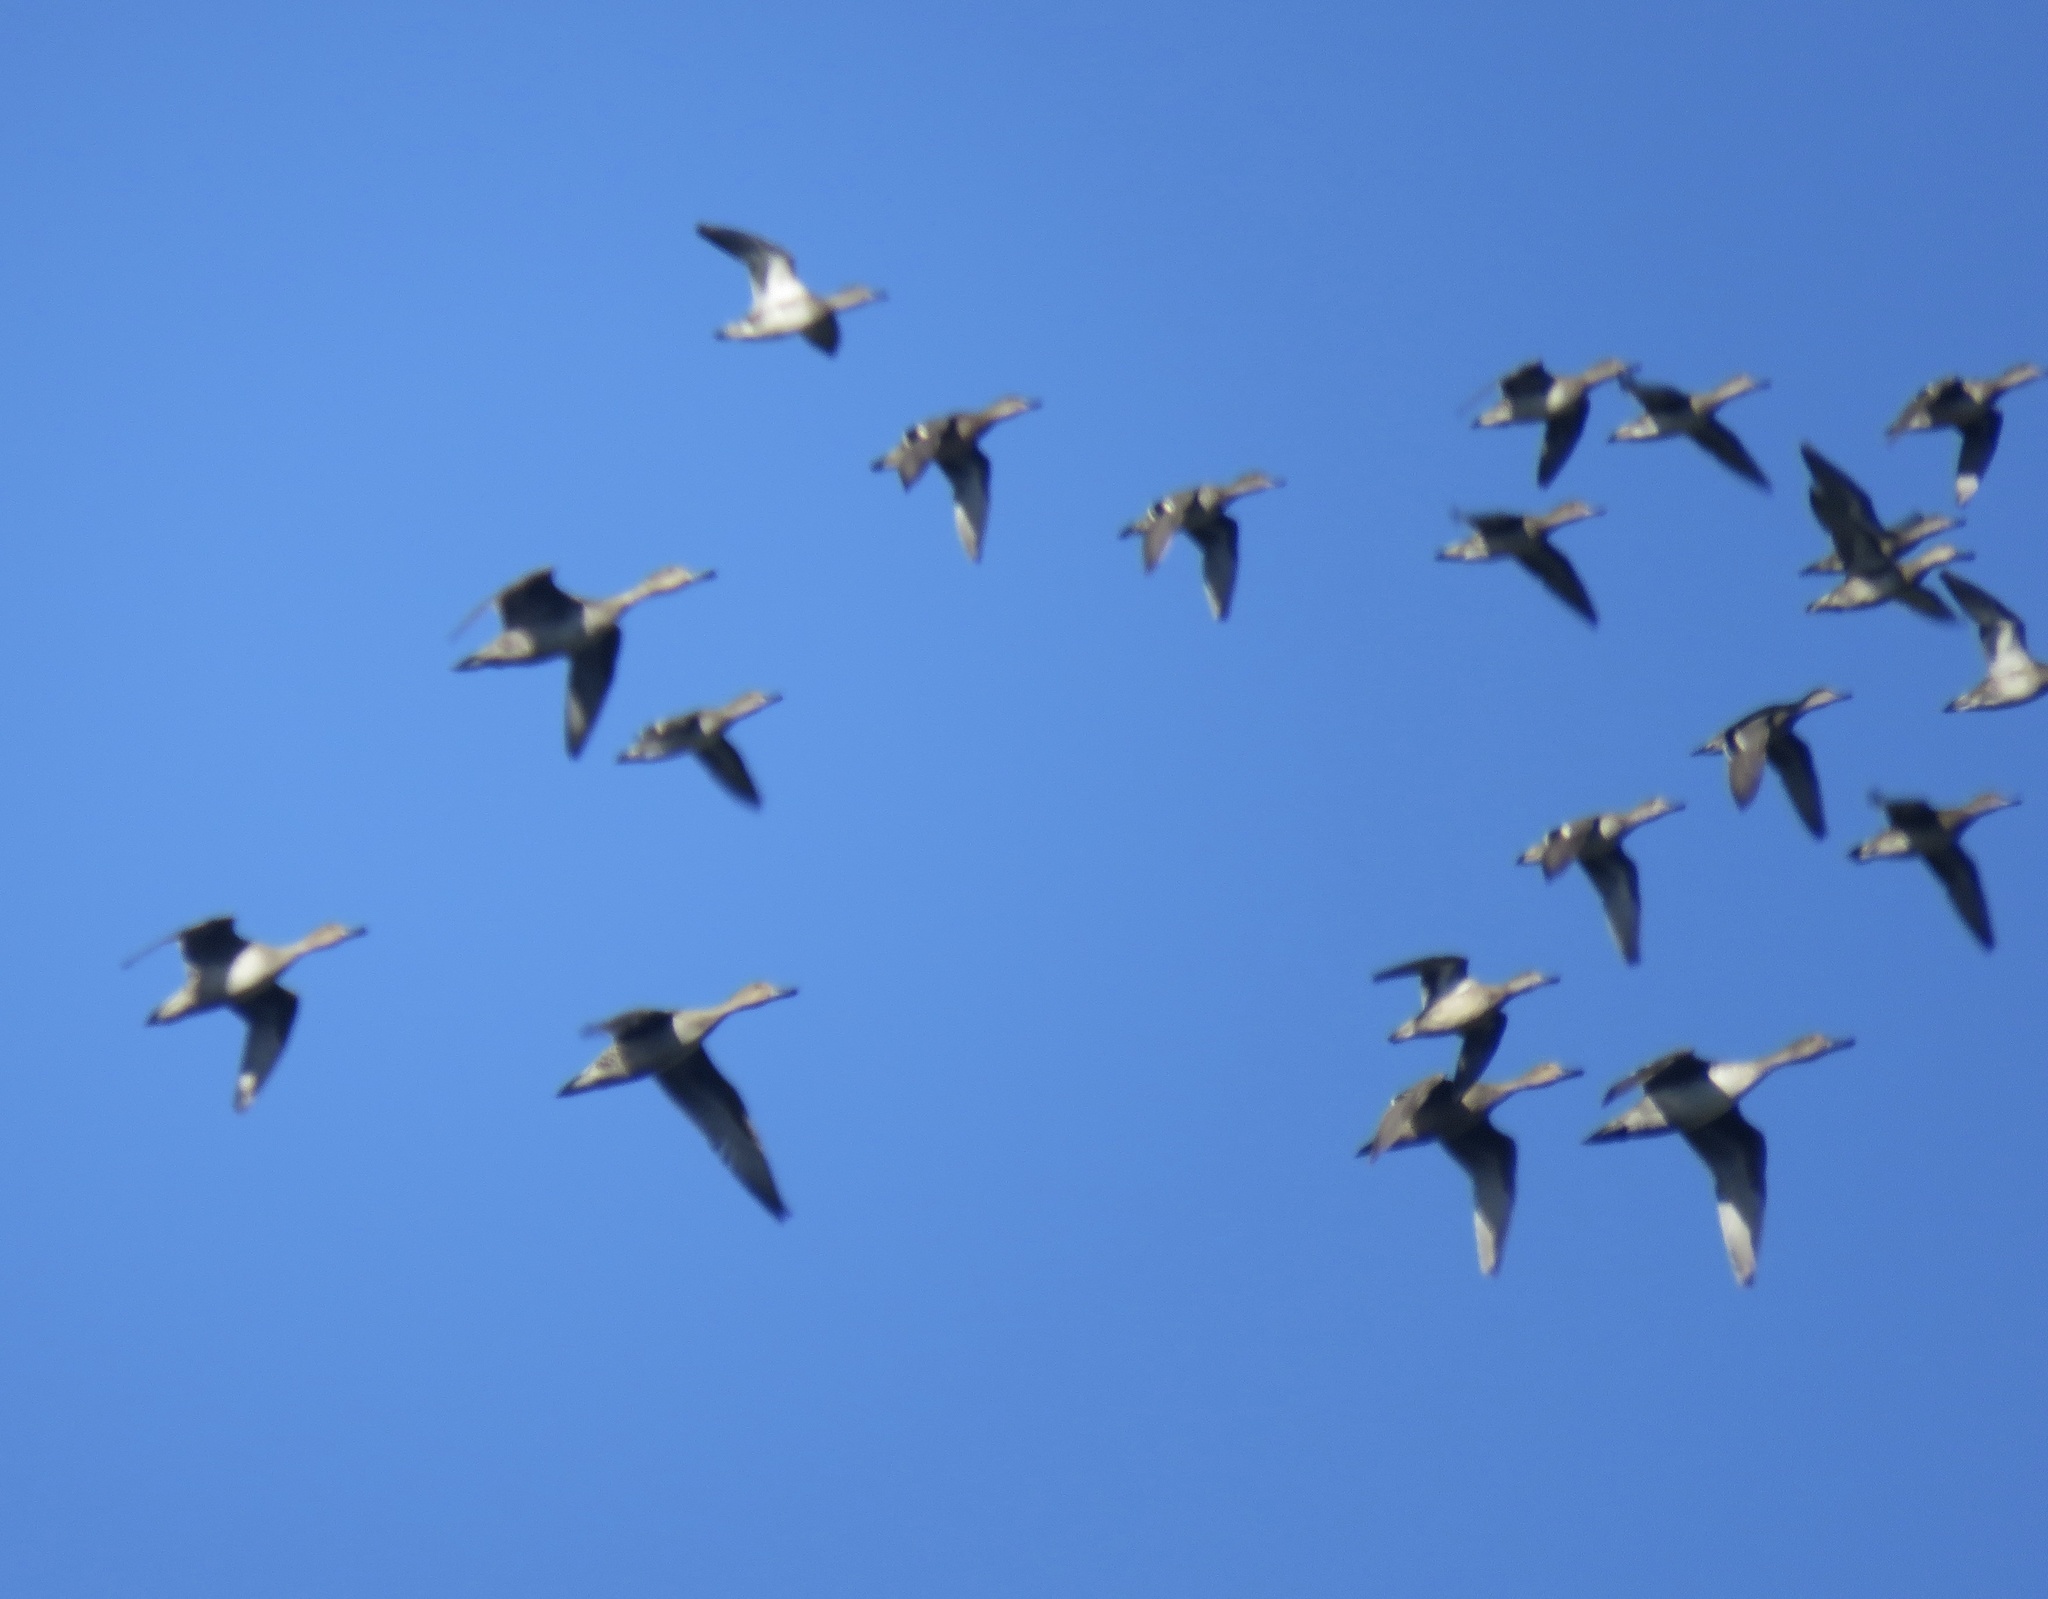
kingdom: Animalia
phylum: Chordata
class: Aves
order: Anseriformes
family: Anatidae
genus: Anas
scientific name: Anas acuta
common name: Northern pintail
